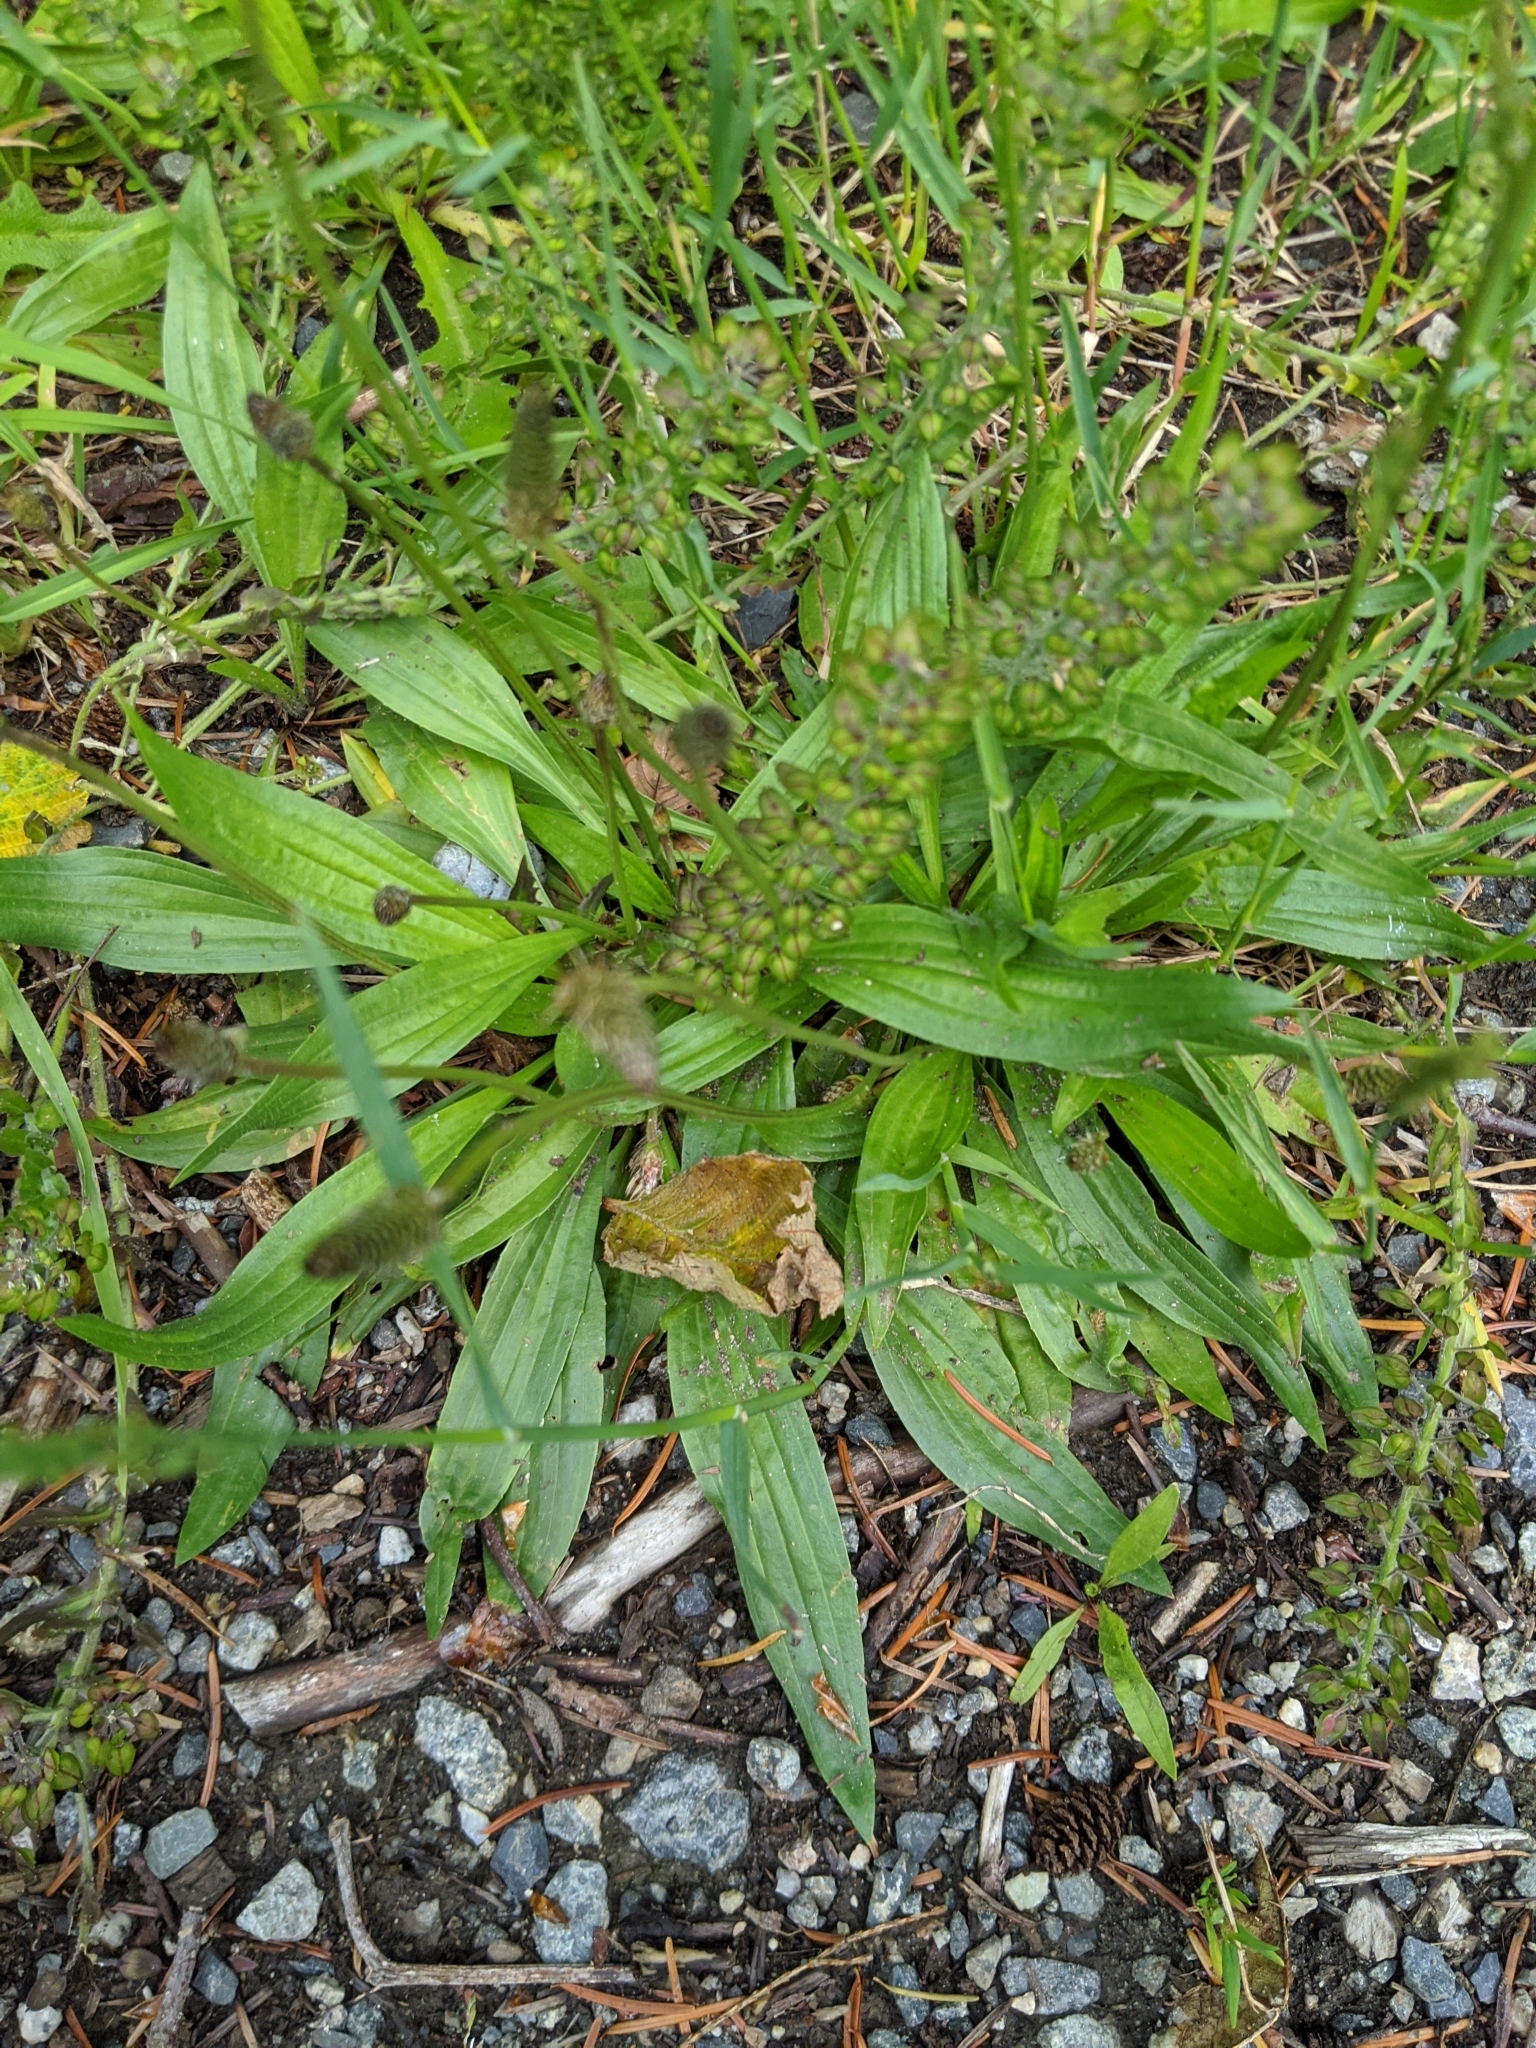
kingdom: Plantae
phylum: Tracheophyta
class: Magnoliopsida
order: Brassicales
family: Brassicaceae
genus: Lepidium
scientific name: Lepidium campestre
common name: Field pepperwort
